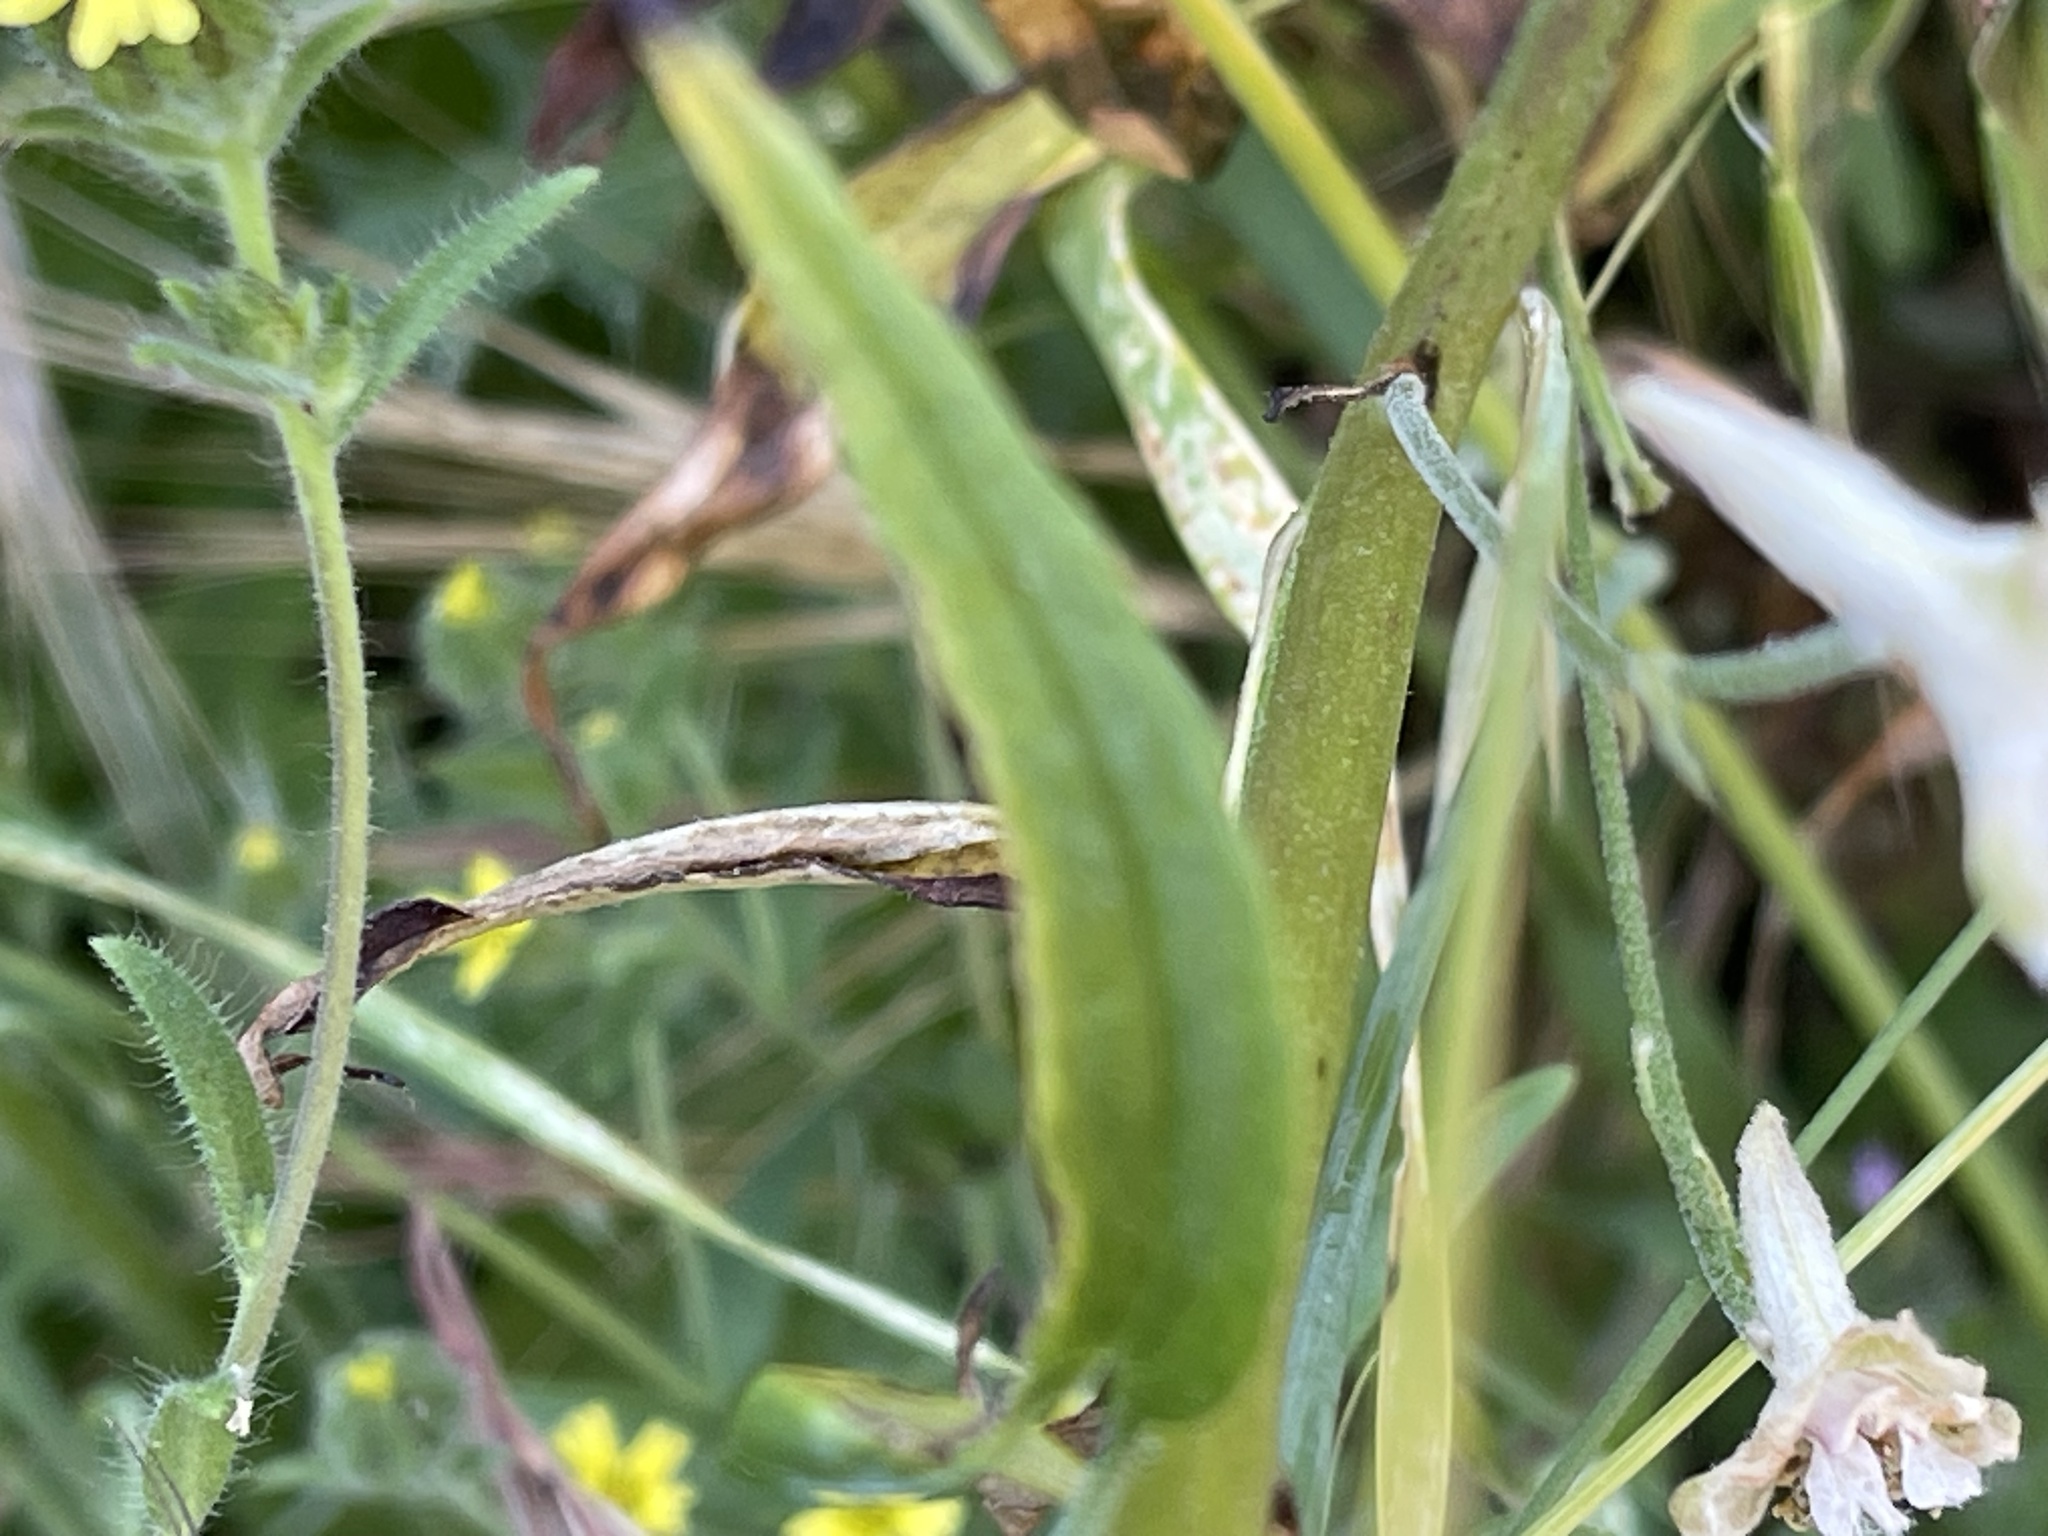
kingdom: Plantae
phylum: Tracheophyta
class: Magnoliopsida
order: Ranunculales
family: Ranunculaceae
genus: Delphinium
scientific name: Delphinium californicum
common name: California larkspur
